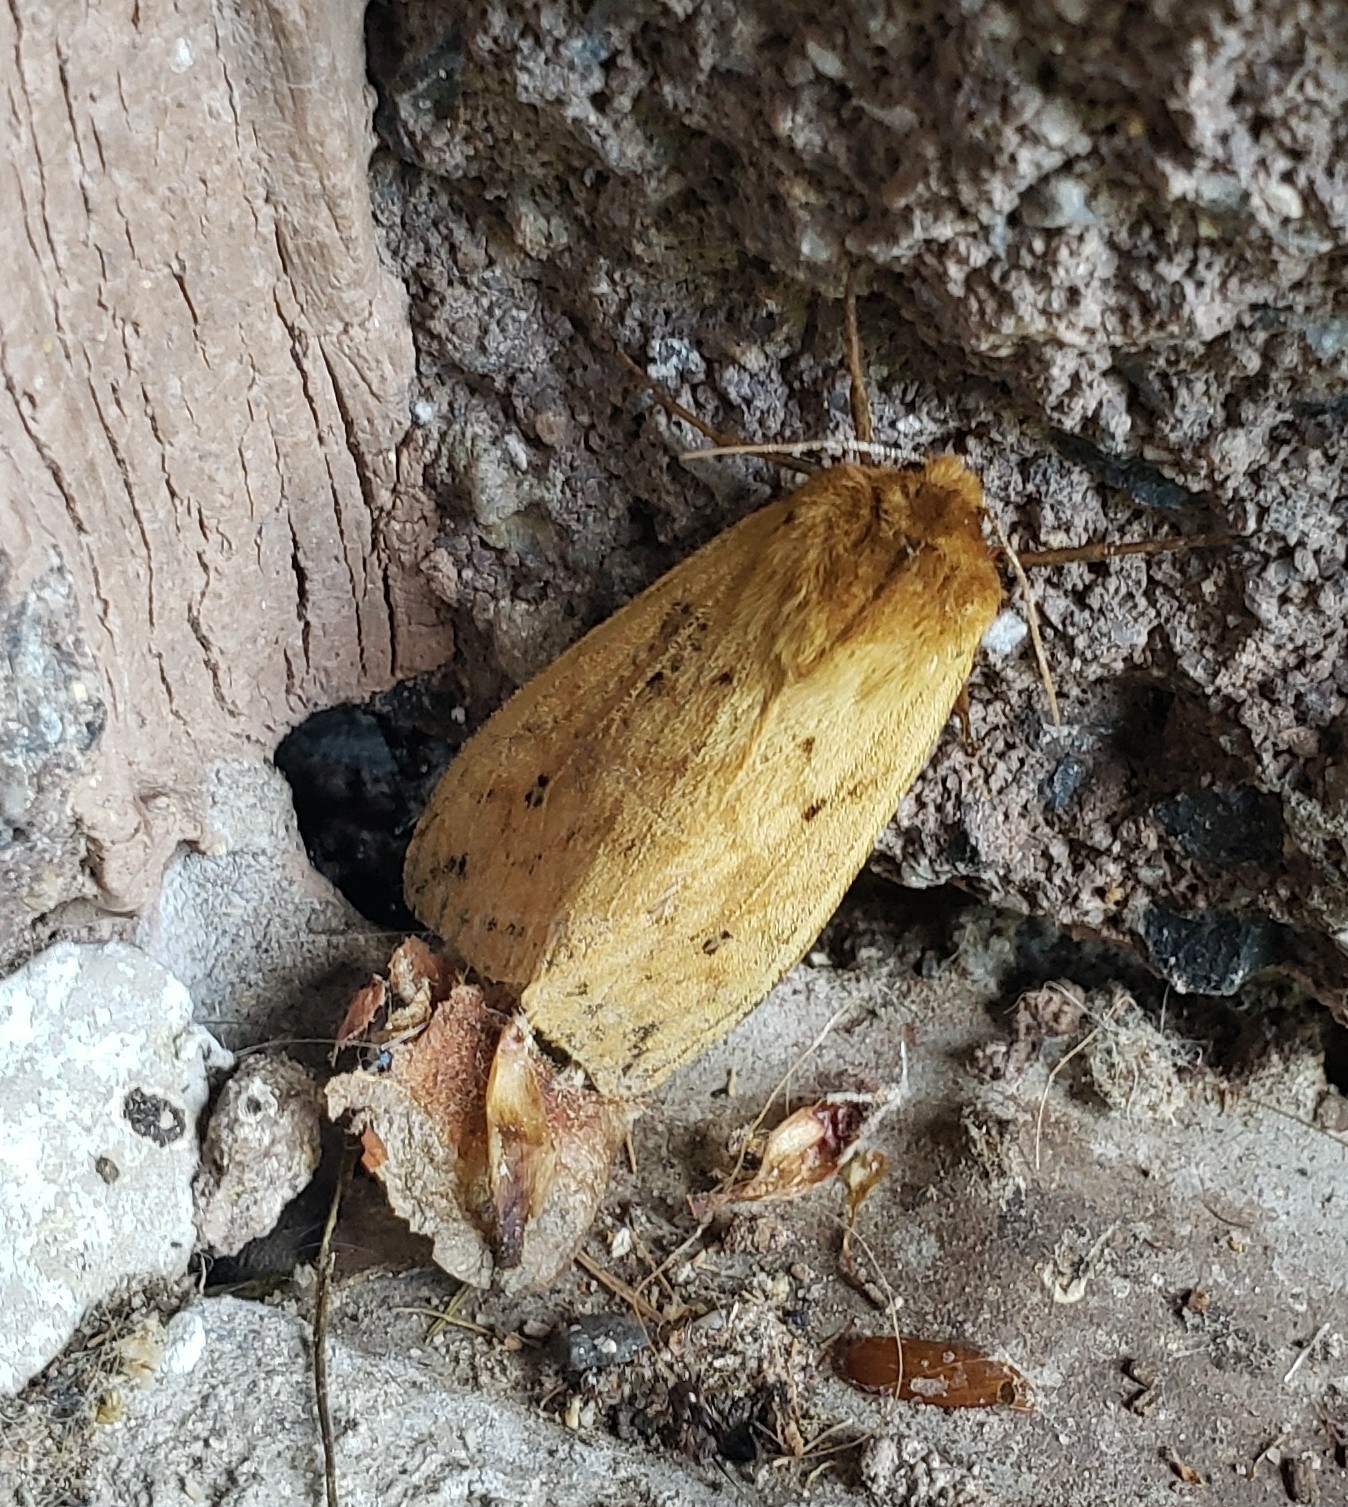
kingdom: Animalia
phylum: Arthropoda
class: Insecta
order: Lepidoptera
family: Erebidae
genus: Pyrrharctia
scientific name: Pyrrharctia isabella
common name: Isabella tiger moth
